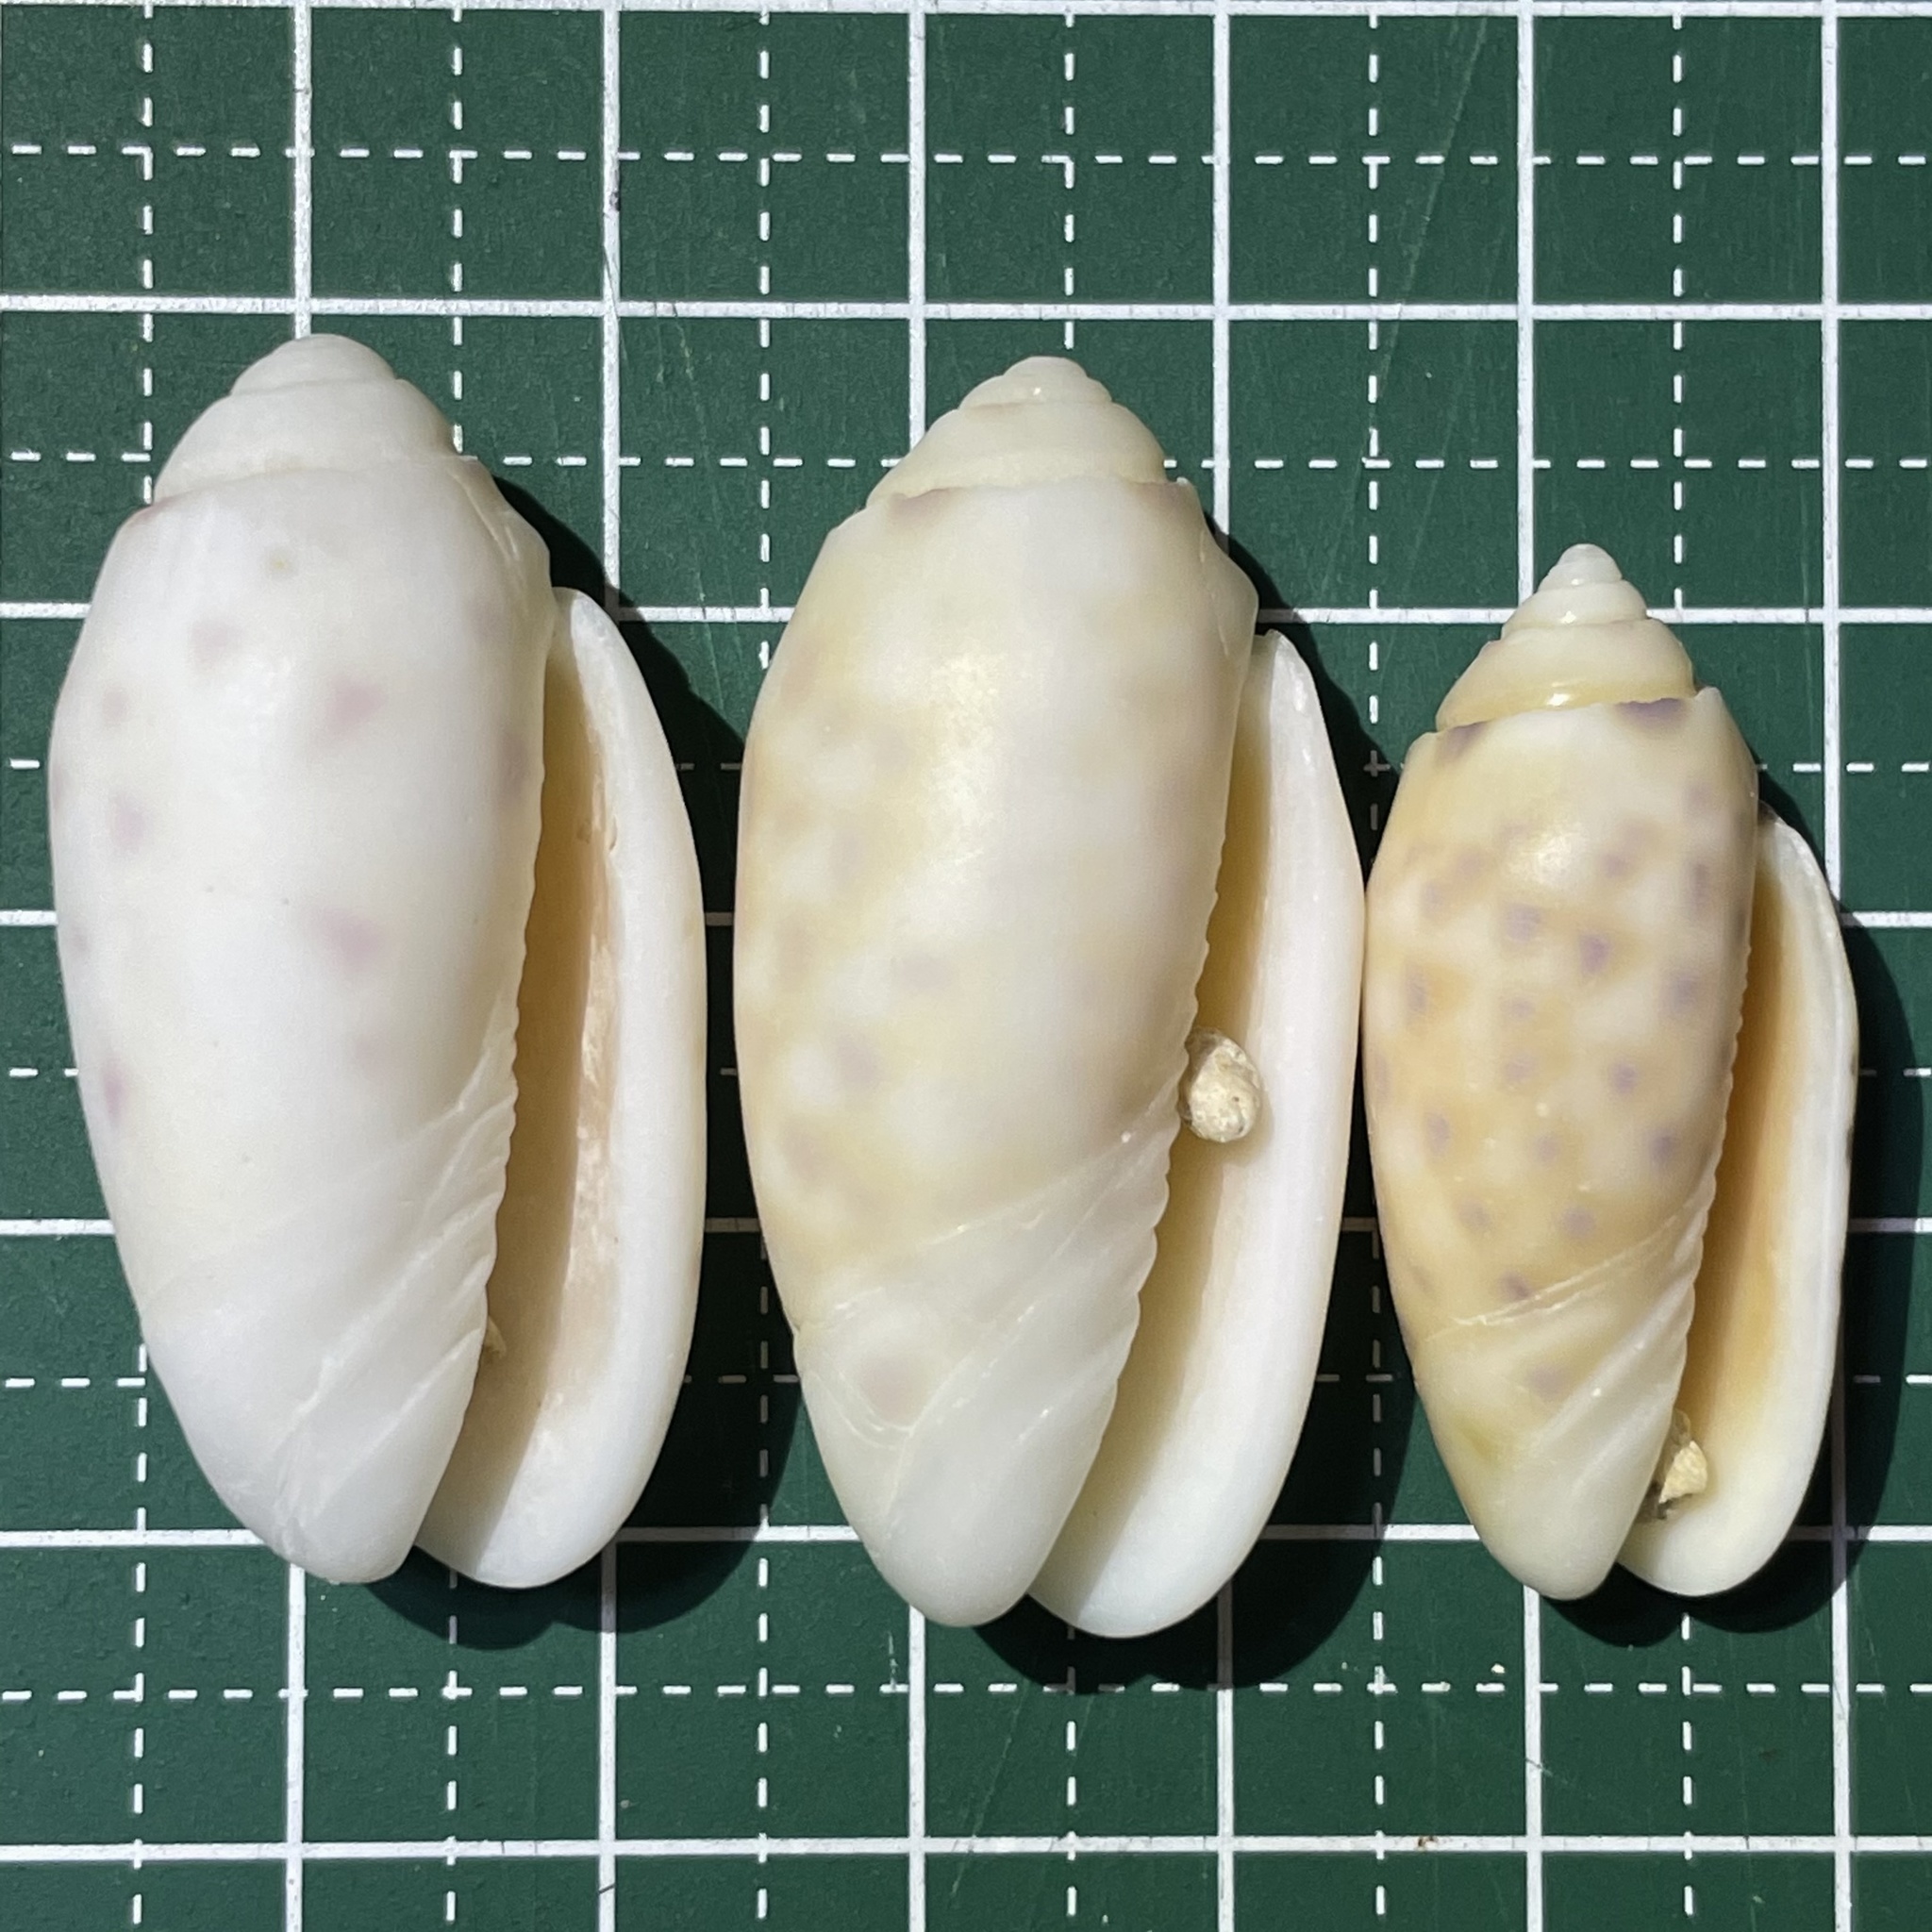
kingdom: Animalia
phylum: Mollusca
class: Gastropoda
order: Neogastropoda
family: Olividae
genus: Oliva
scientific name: Oliva amethystina
